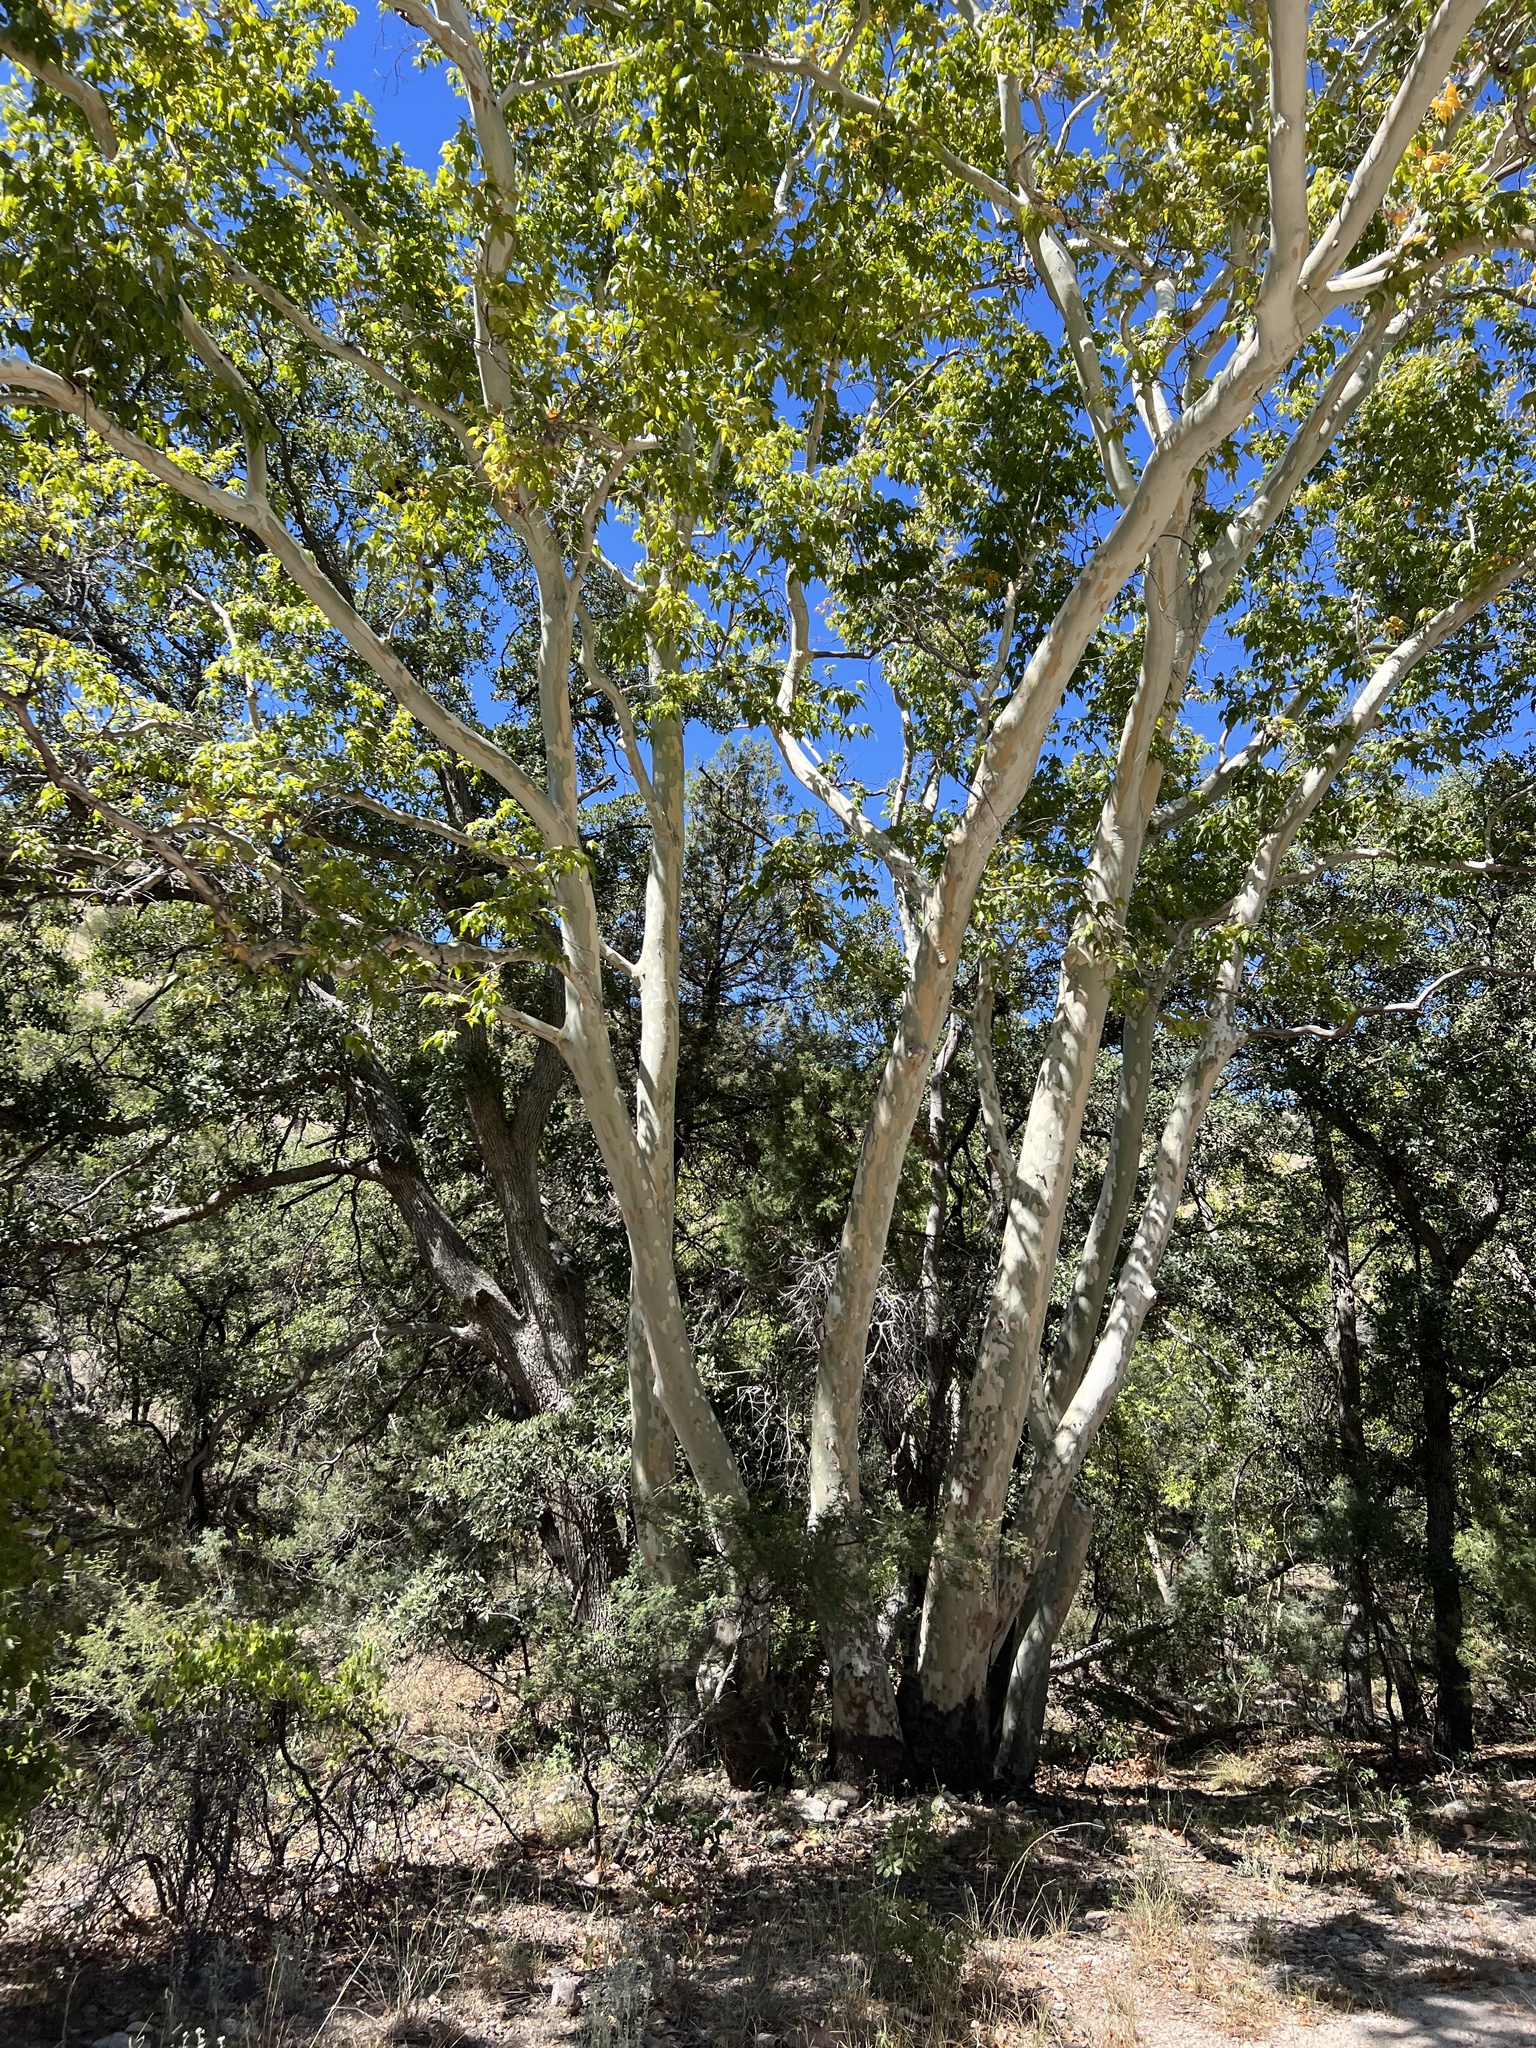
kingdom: Plantae
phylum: Tracheophyta
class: Magnoliopsida
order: Proteales
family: Platanaceae
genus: Platanus
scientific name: Platanus wrightii
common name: Arizona sycamore
